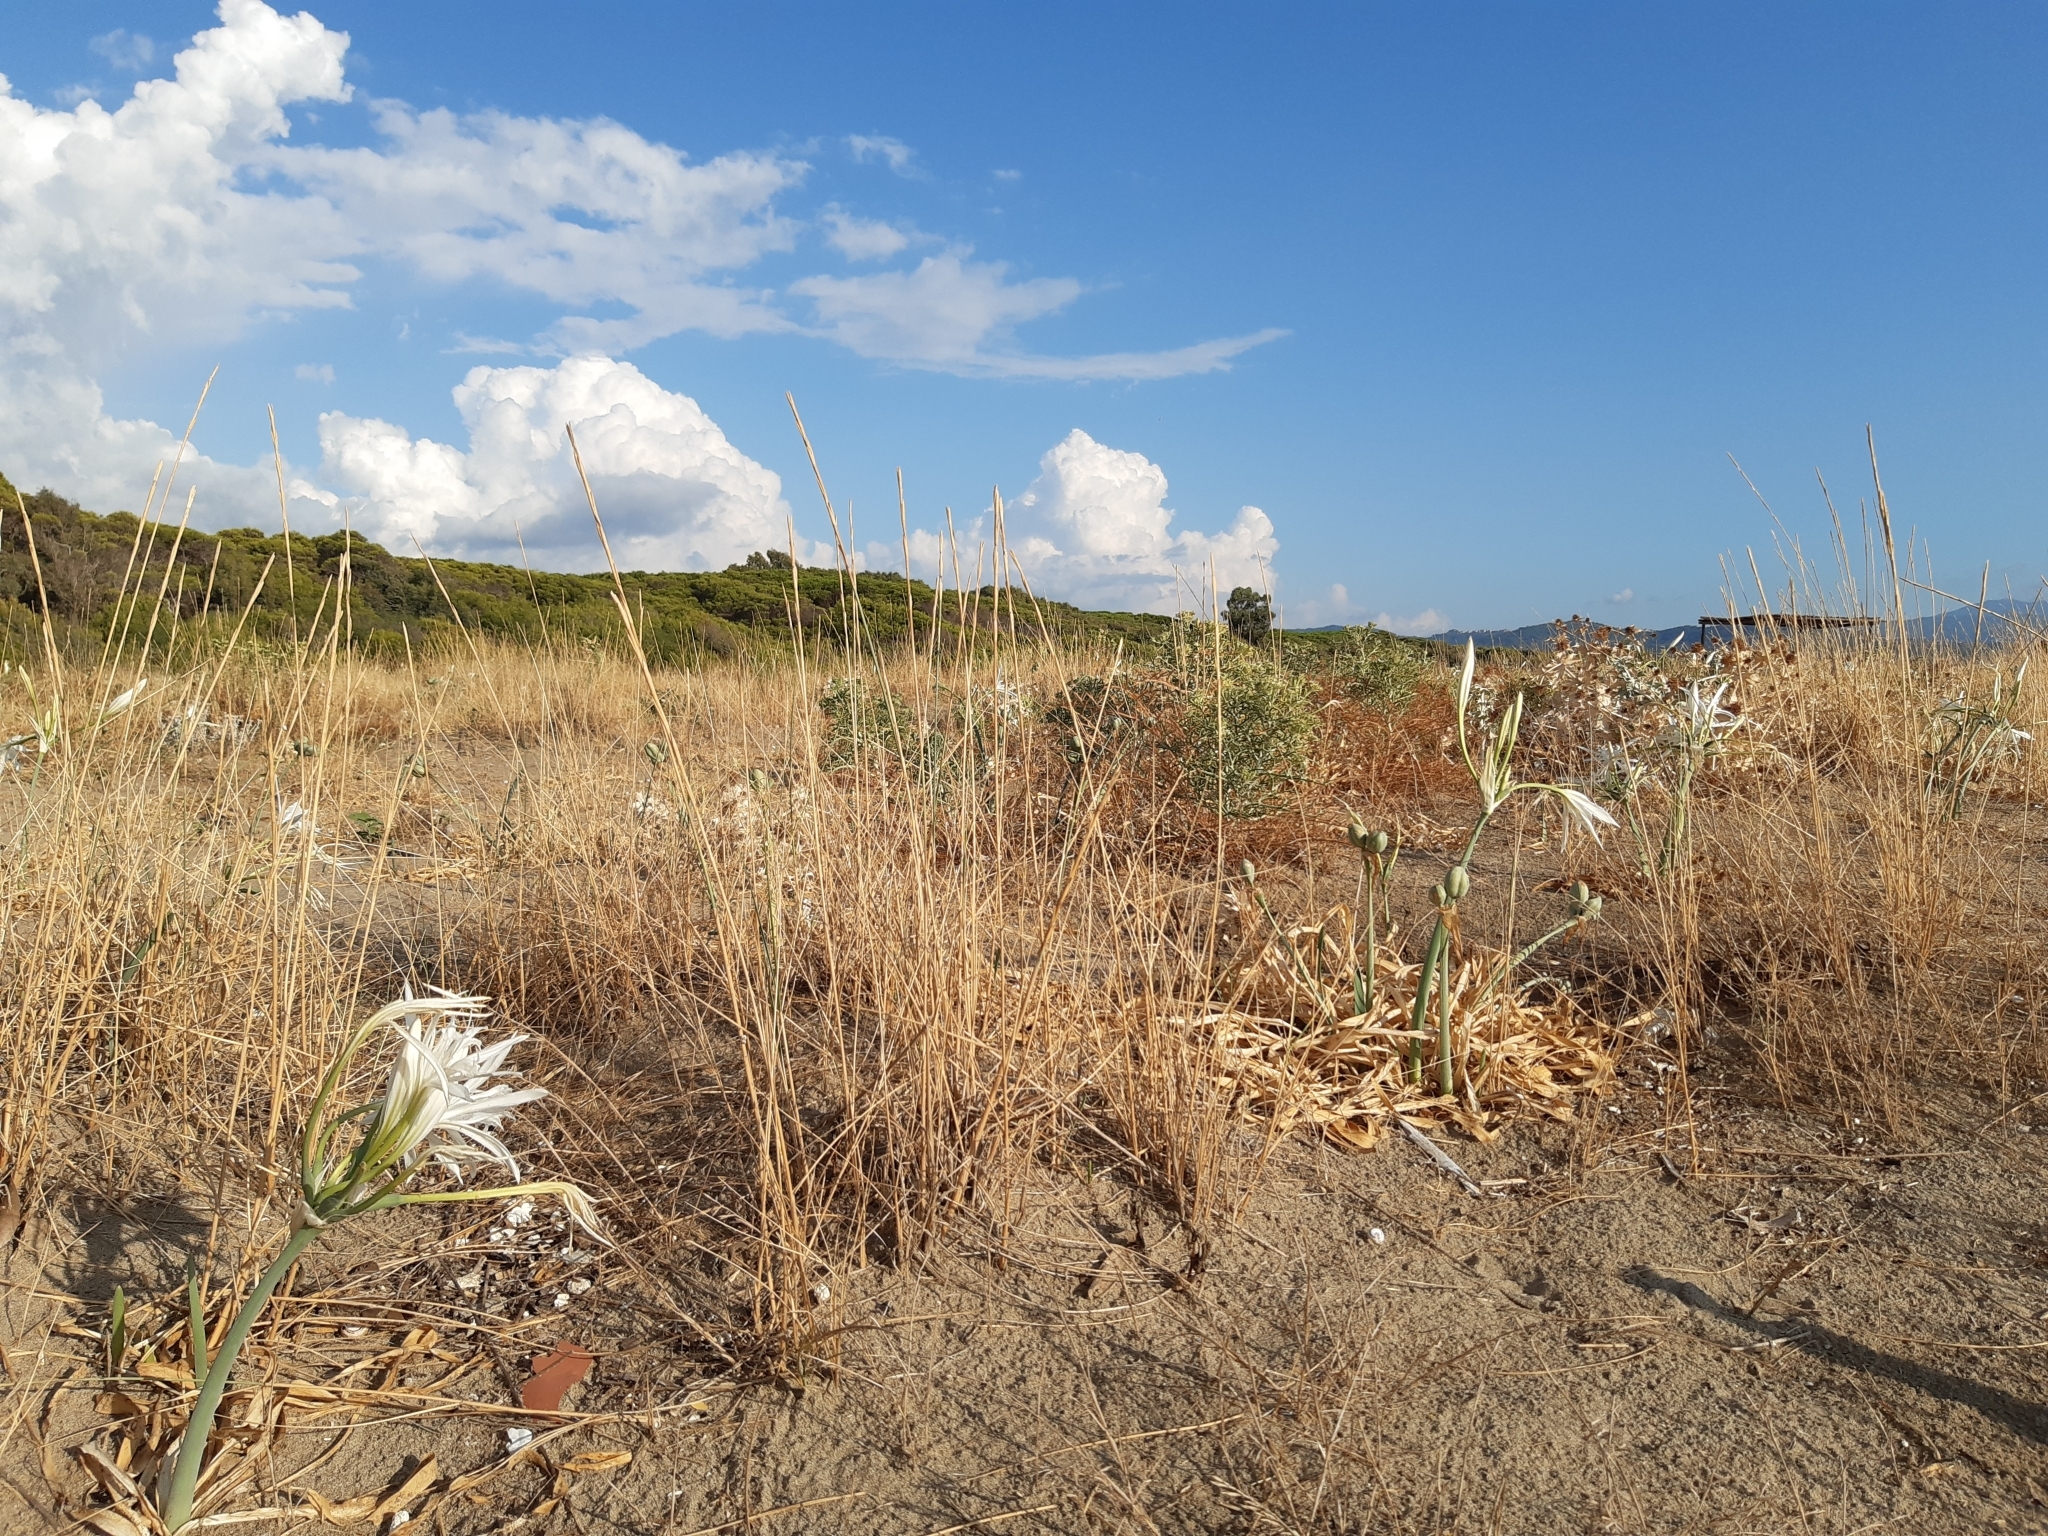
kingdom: Plantae
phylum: Tracheophyta
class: Liliopsida
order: Asparagales
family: Amaryllidaceae
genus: Pancratium
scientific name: Pancratium maritimum
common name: Sea-daffodil
